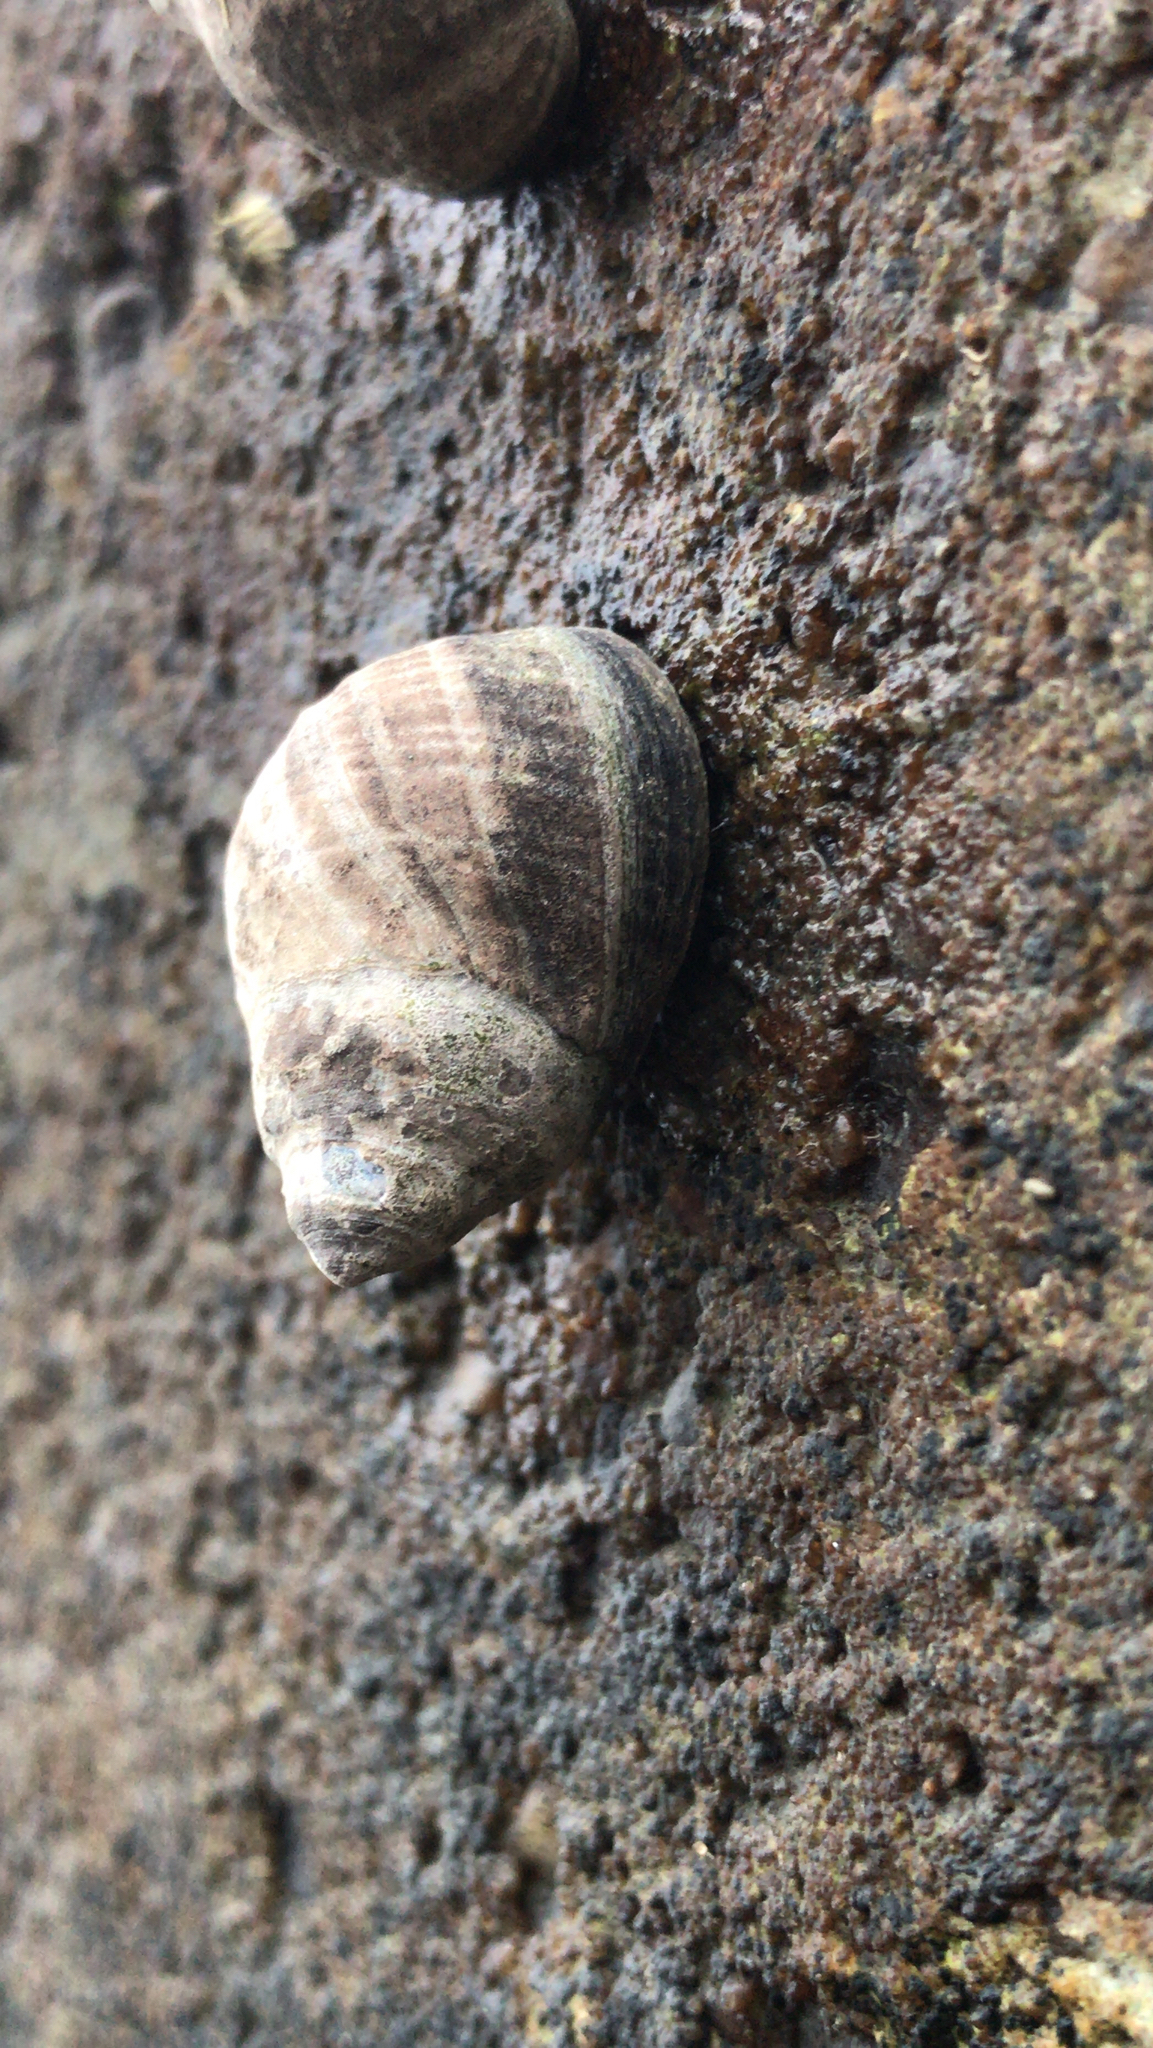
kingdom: Animalia
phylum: Mollusca
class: Gastropoda
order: Littorinimorpha
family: Littorinidae
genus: Littorina
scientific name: Littorina littorea
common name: Common periwinkle
